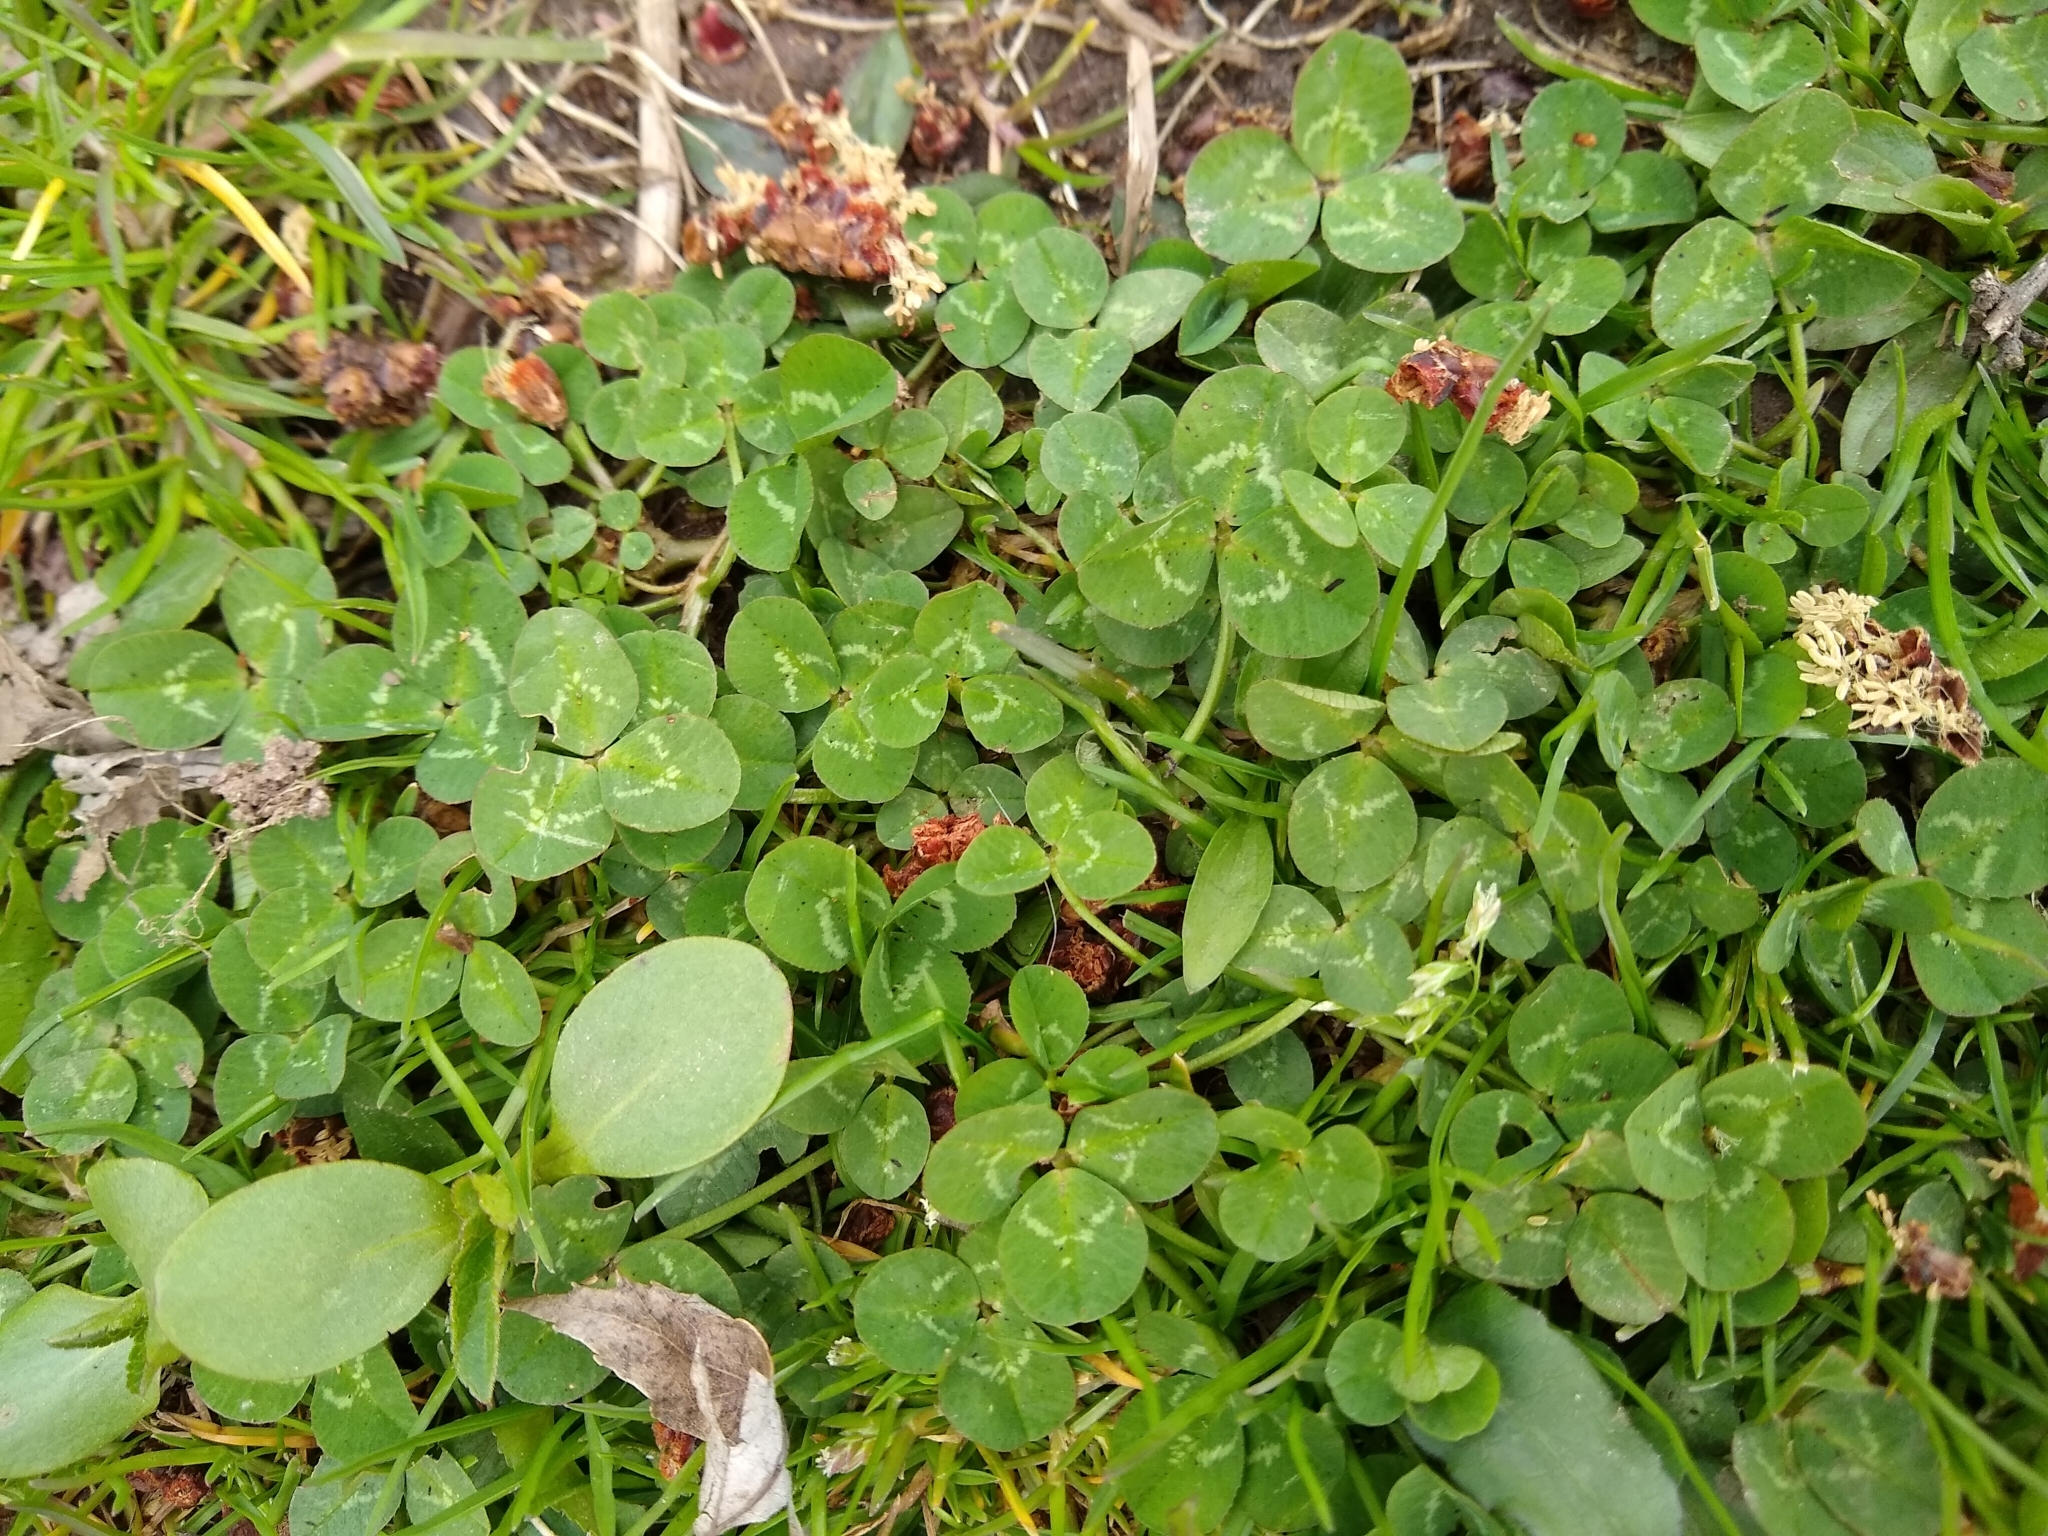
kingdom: Plantae
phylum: Tracheophyta
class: Magnoliopsida
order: Fabales
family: Fabaceae
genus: Trifolium
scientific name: Trifolium repens
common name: White clover
